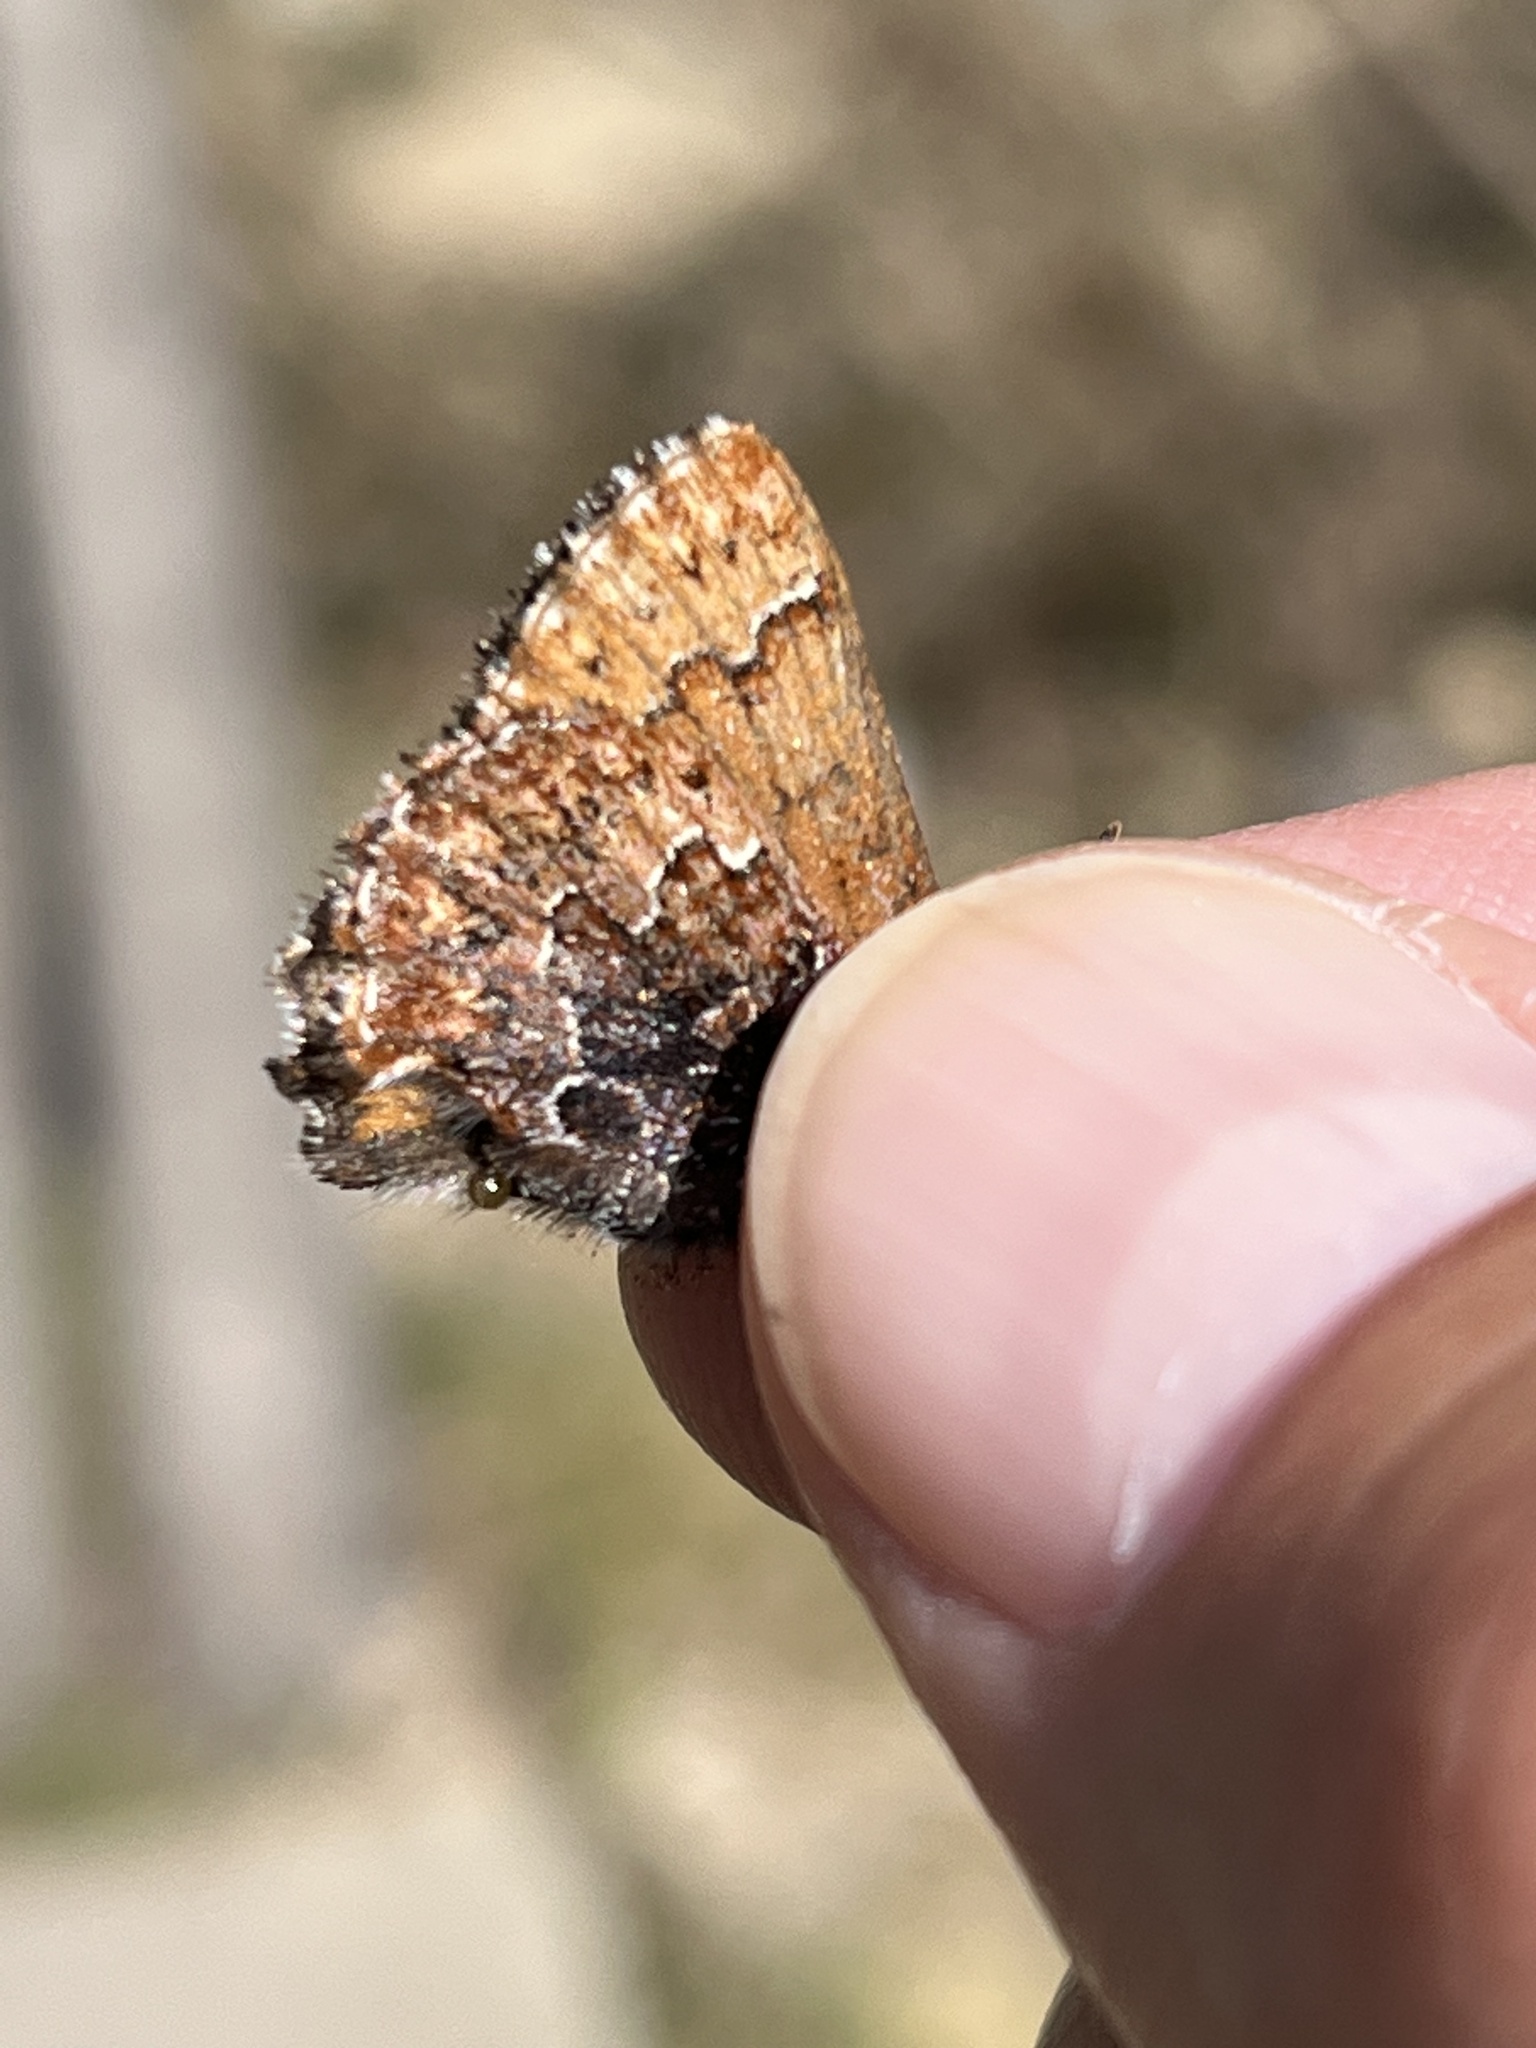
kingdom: Animalia
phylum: Arthropoda
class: Insecta
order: Lepidoptera
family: Lycaenidae
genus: Incisalia
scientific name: Incisalia eryphon
